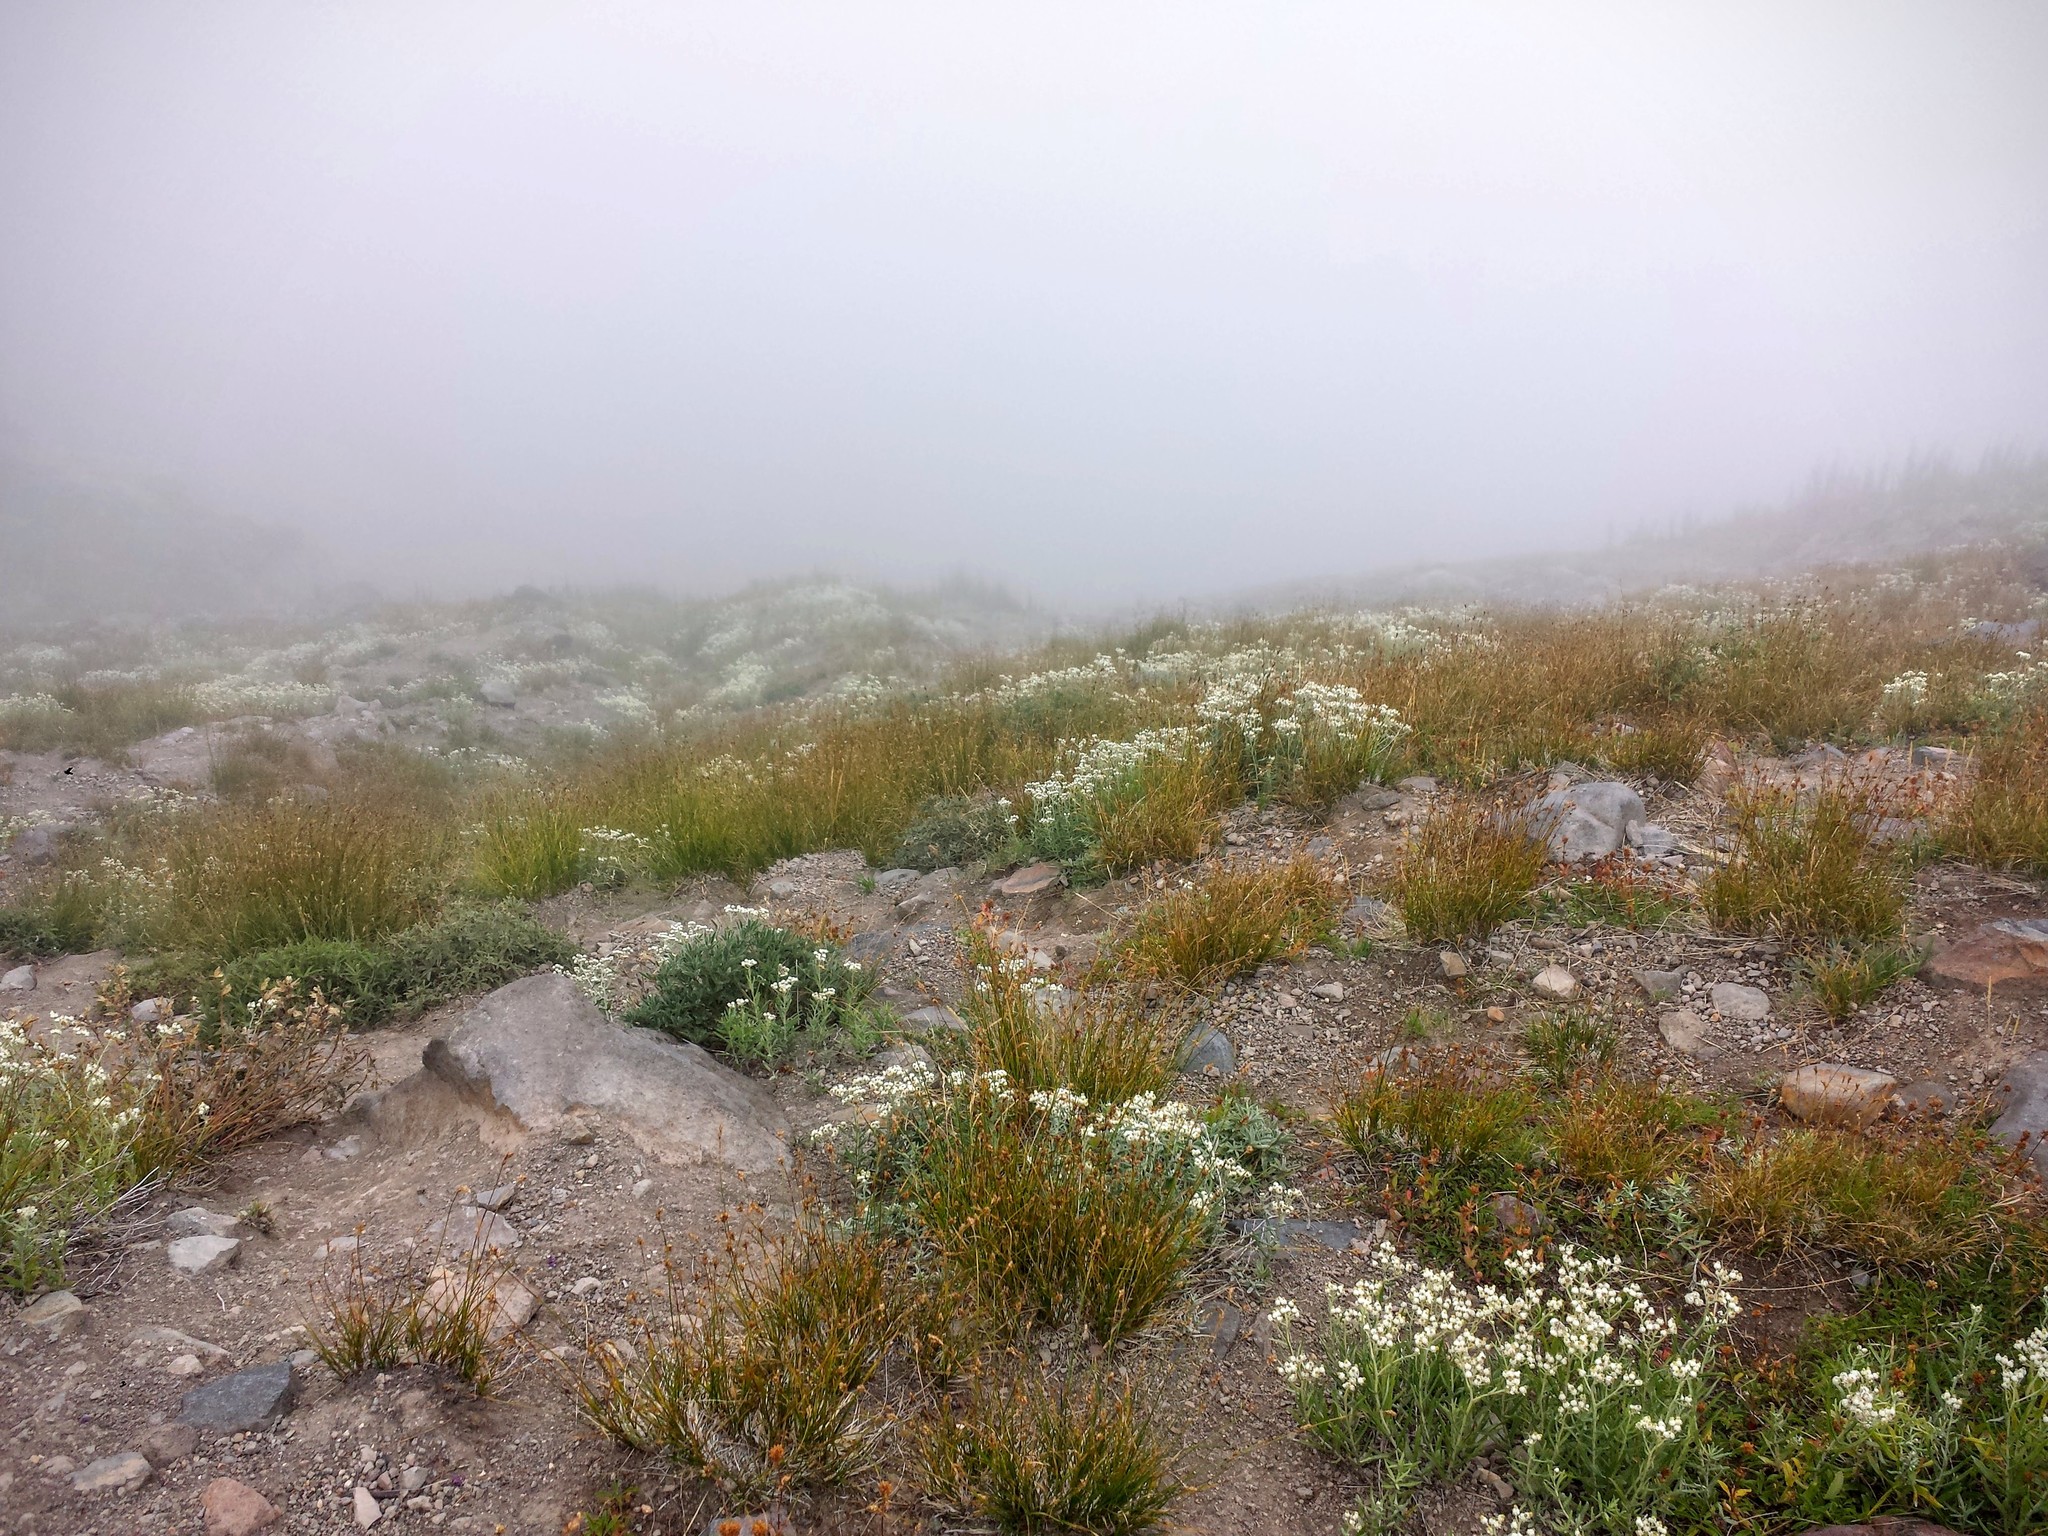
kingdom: Plantae
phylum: Tracheophyta
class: Magnoliopsida
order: Asterales
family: Asteraceae
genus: Anaphalis
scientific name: Anaphalis margaritacea
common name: Pearly everlasting
